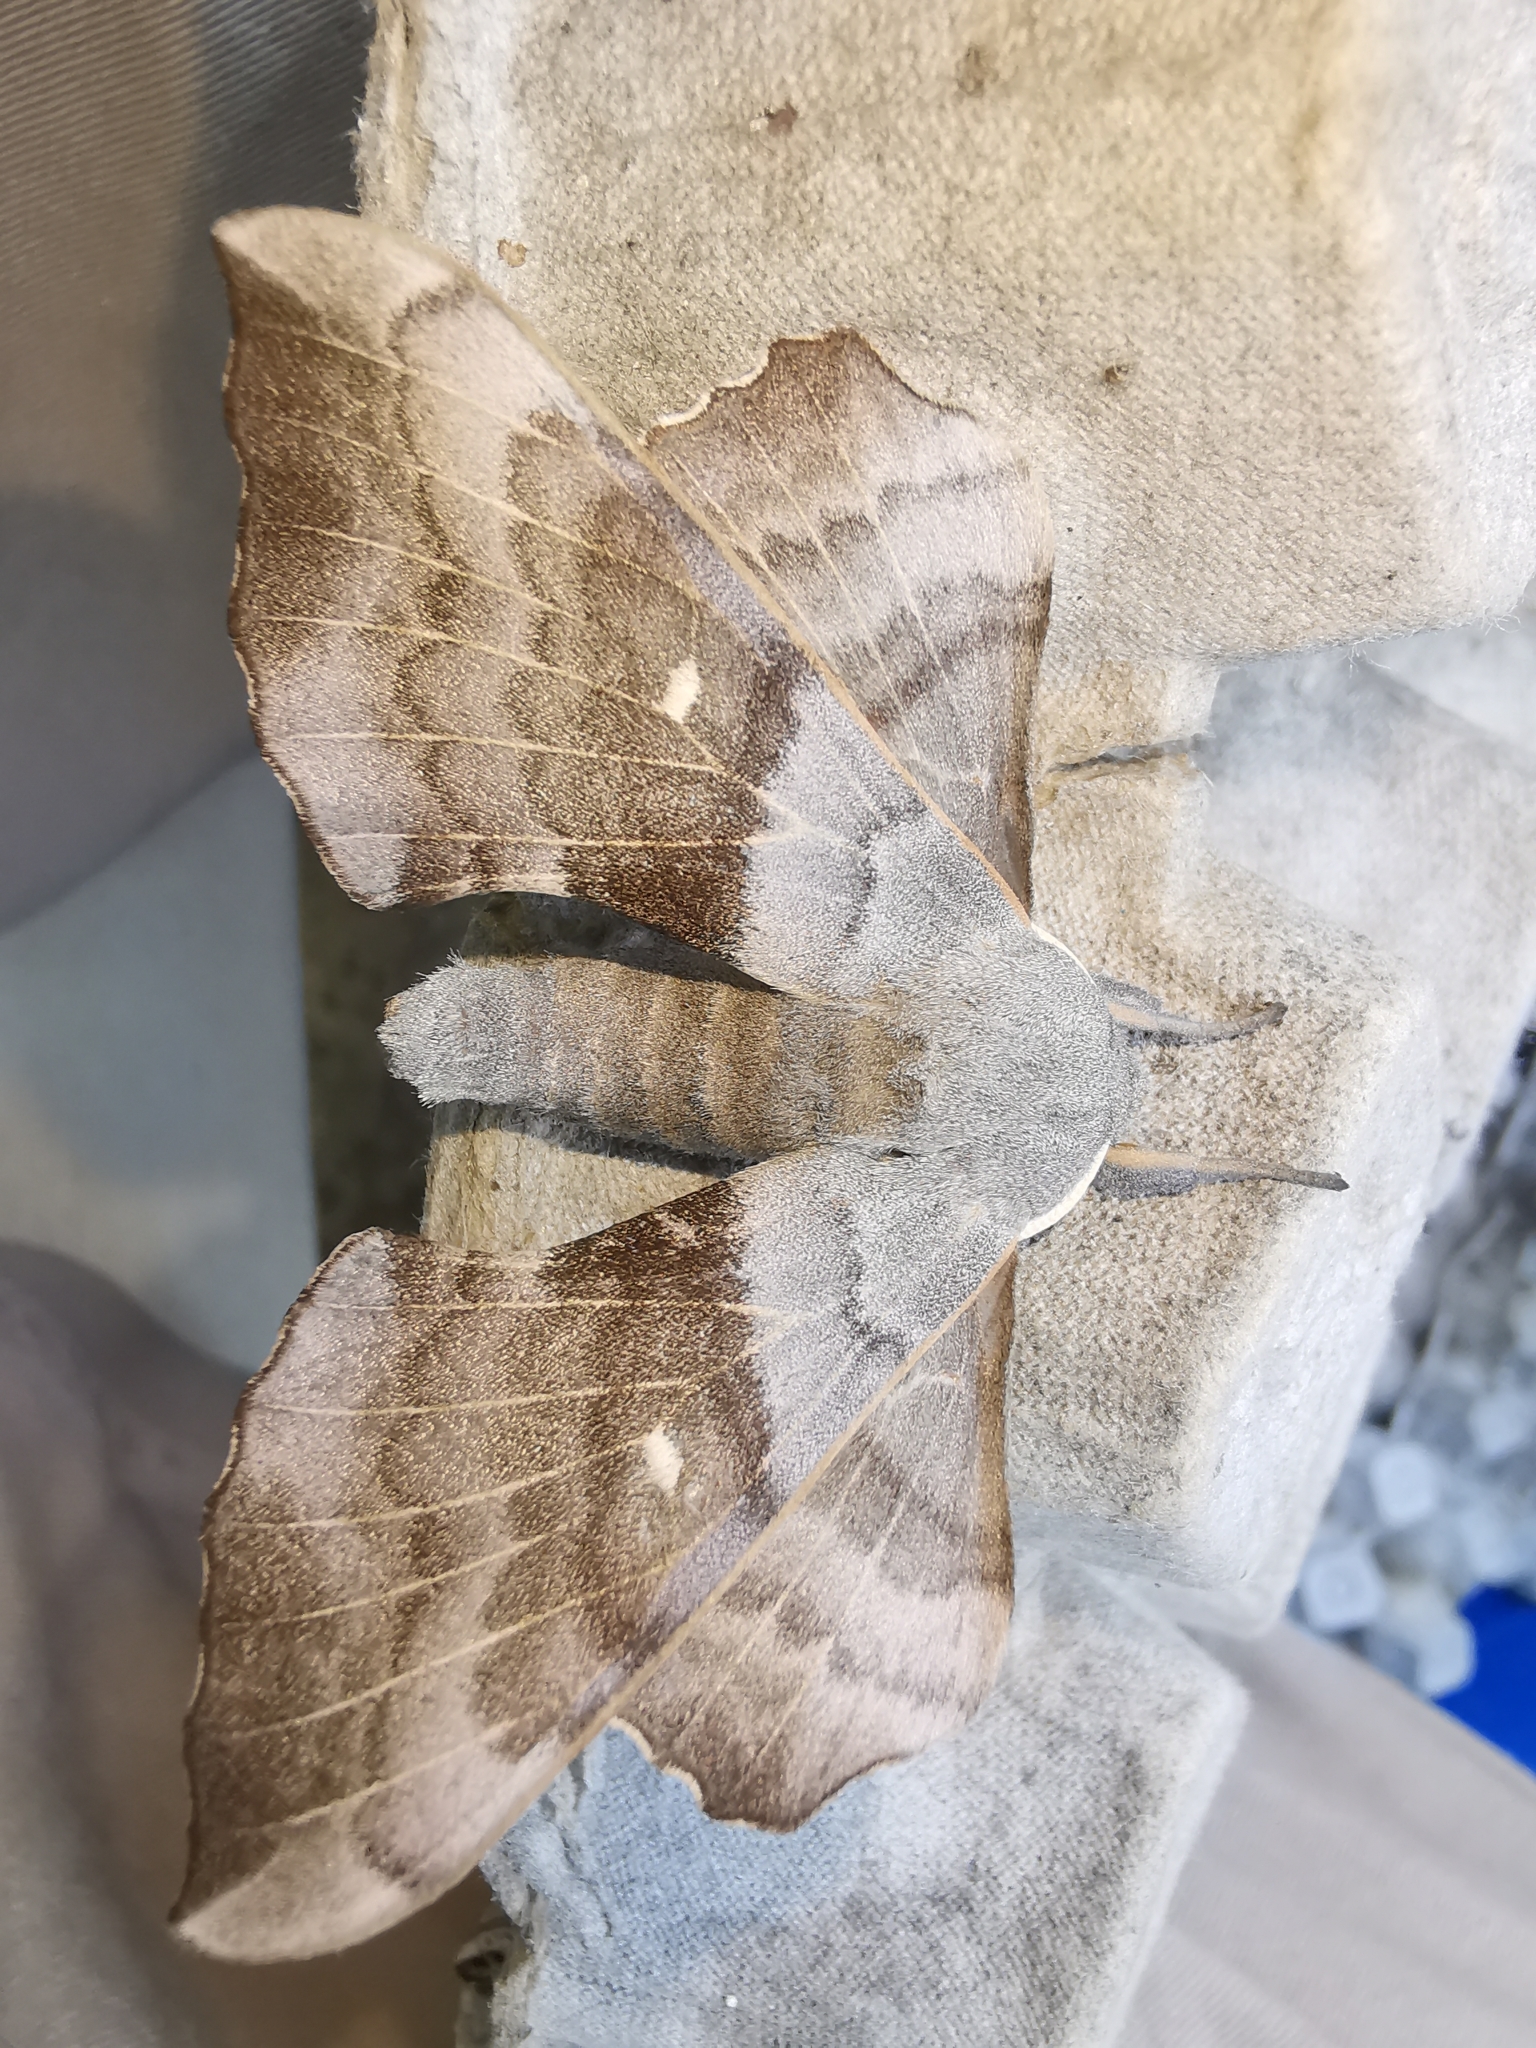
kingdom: Animalia
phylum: Arthropoda
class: Insecta
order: Lepidoptera
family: Sphingidae
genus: Laothoe
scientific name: Laothoe populi
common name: Poplar hawk-moth
